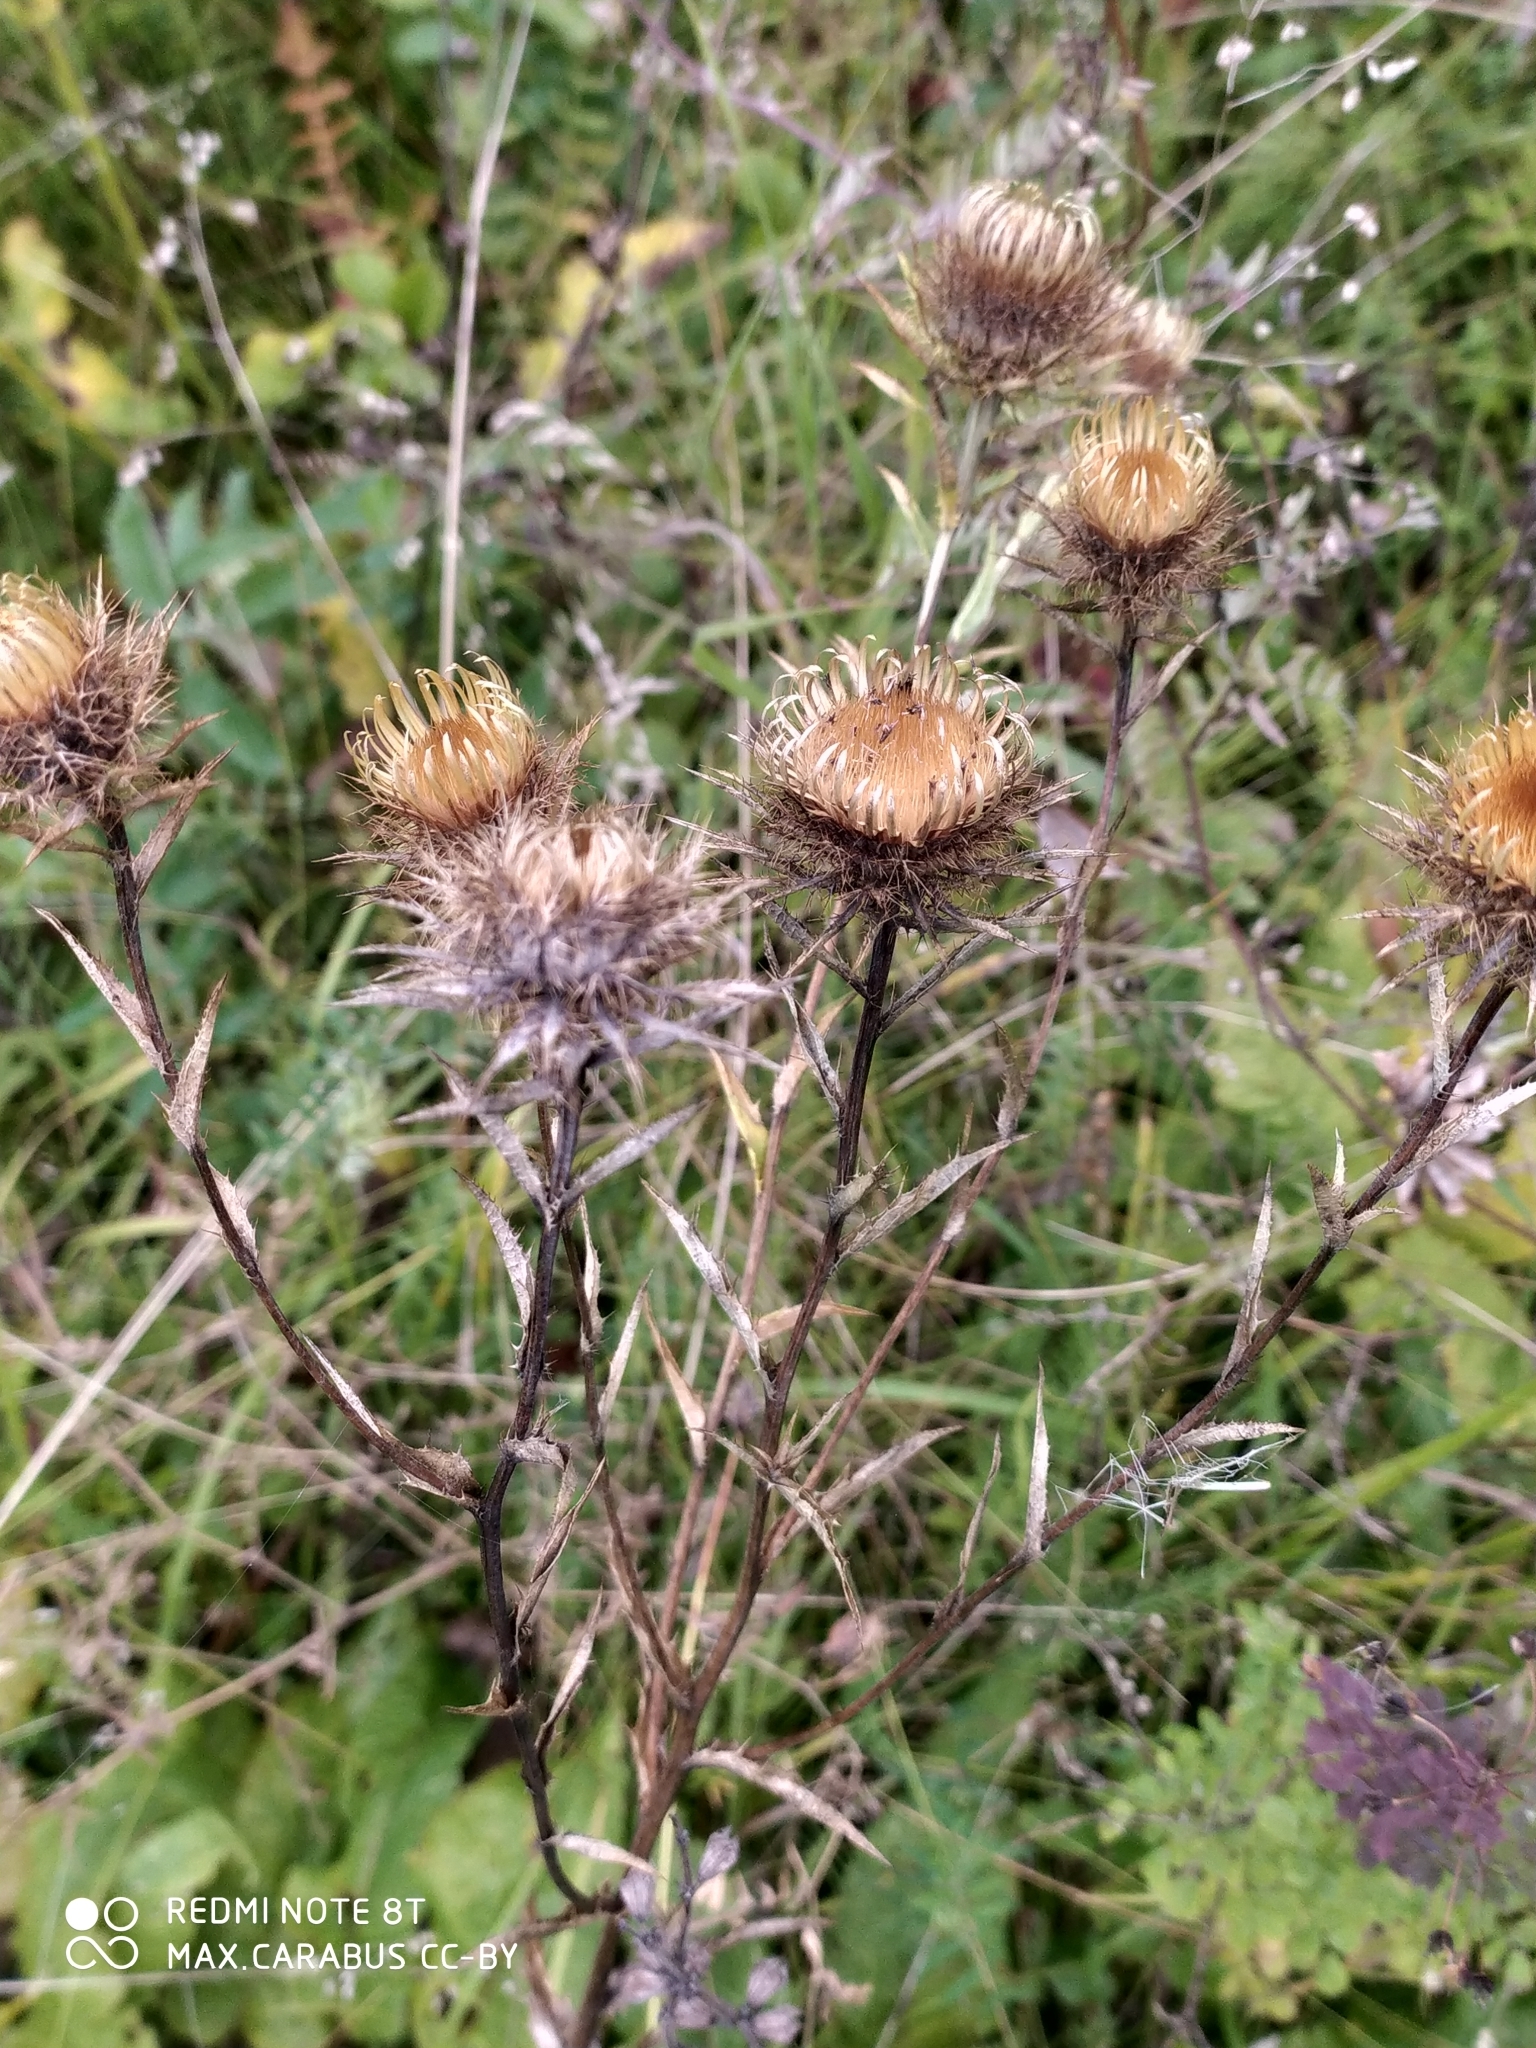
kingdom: Plantae
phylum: Tracheophyta
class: Magnoliopsida
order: Asterales
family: Asteraceae
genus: Carlina
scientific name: Carlina biebersteinii
